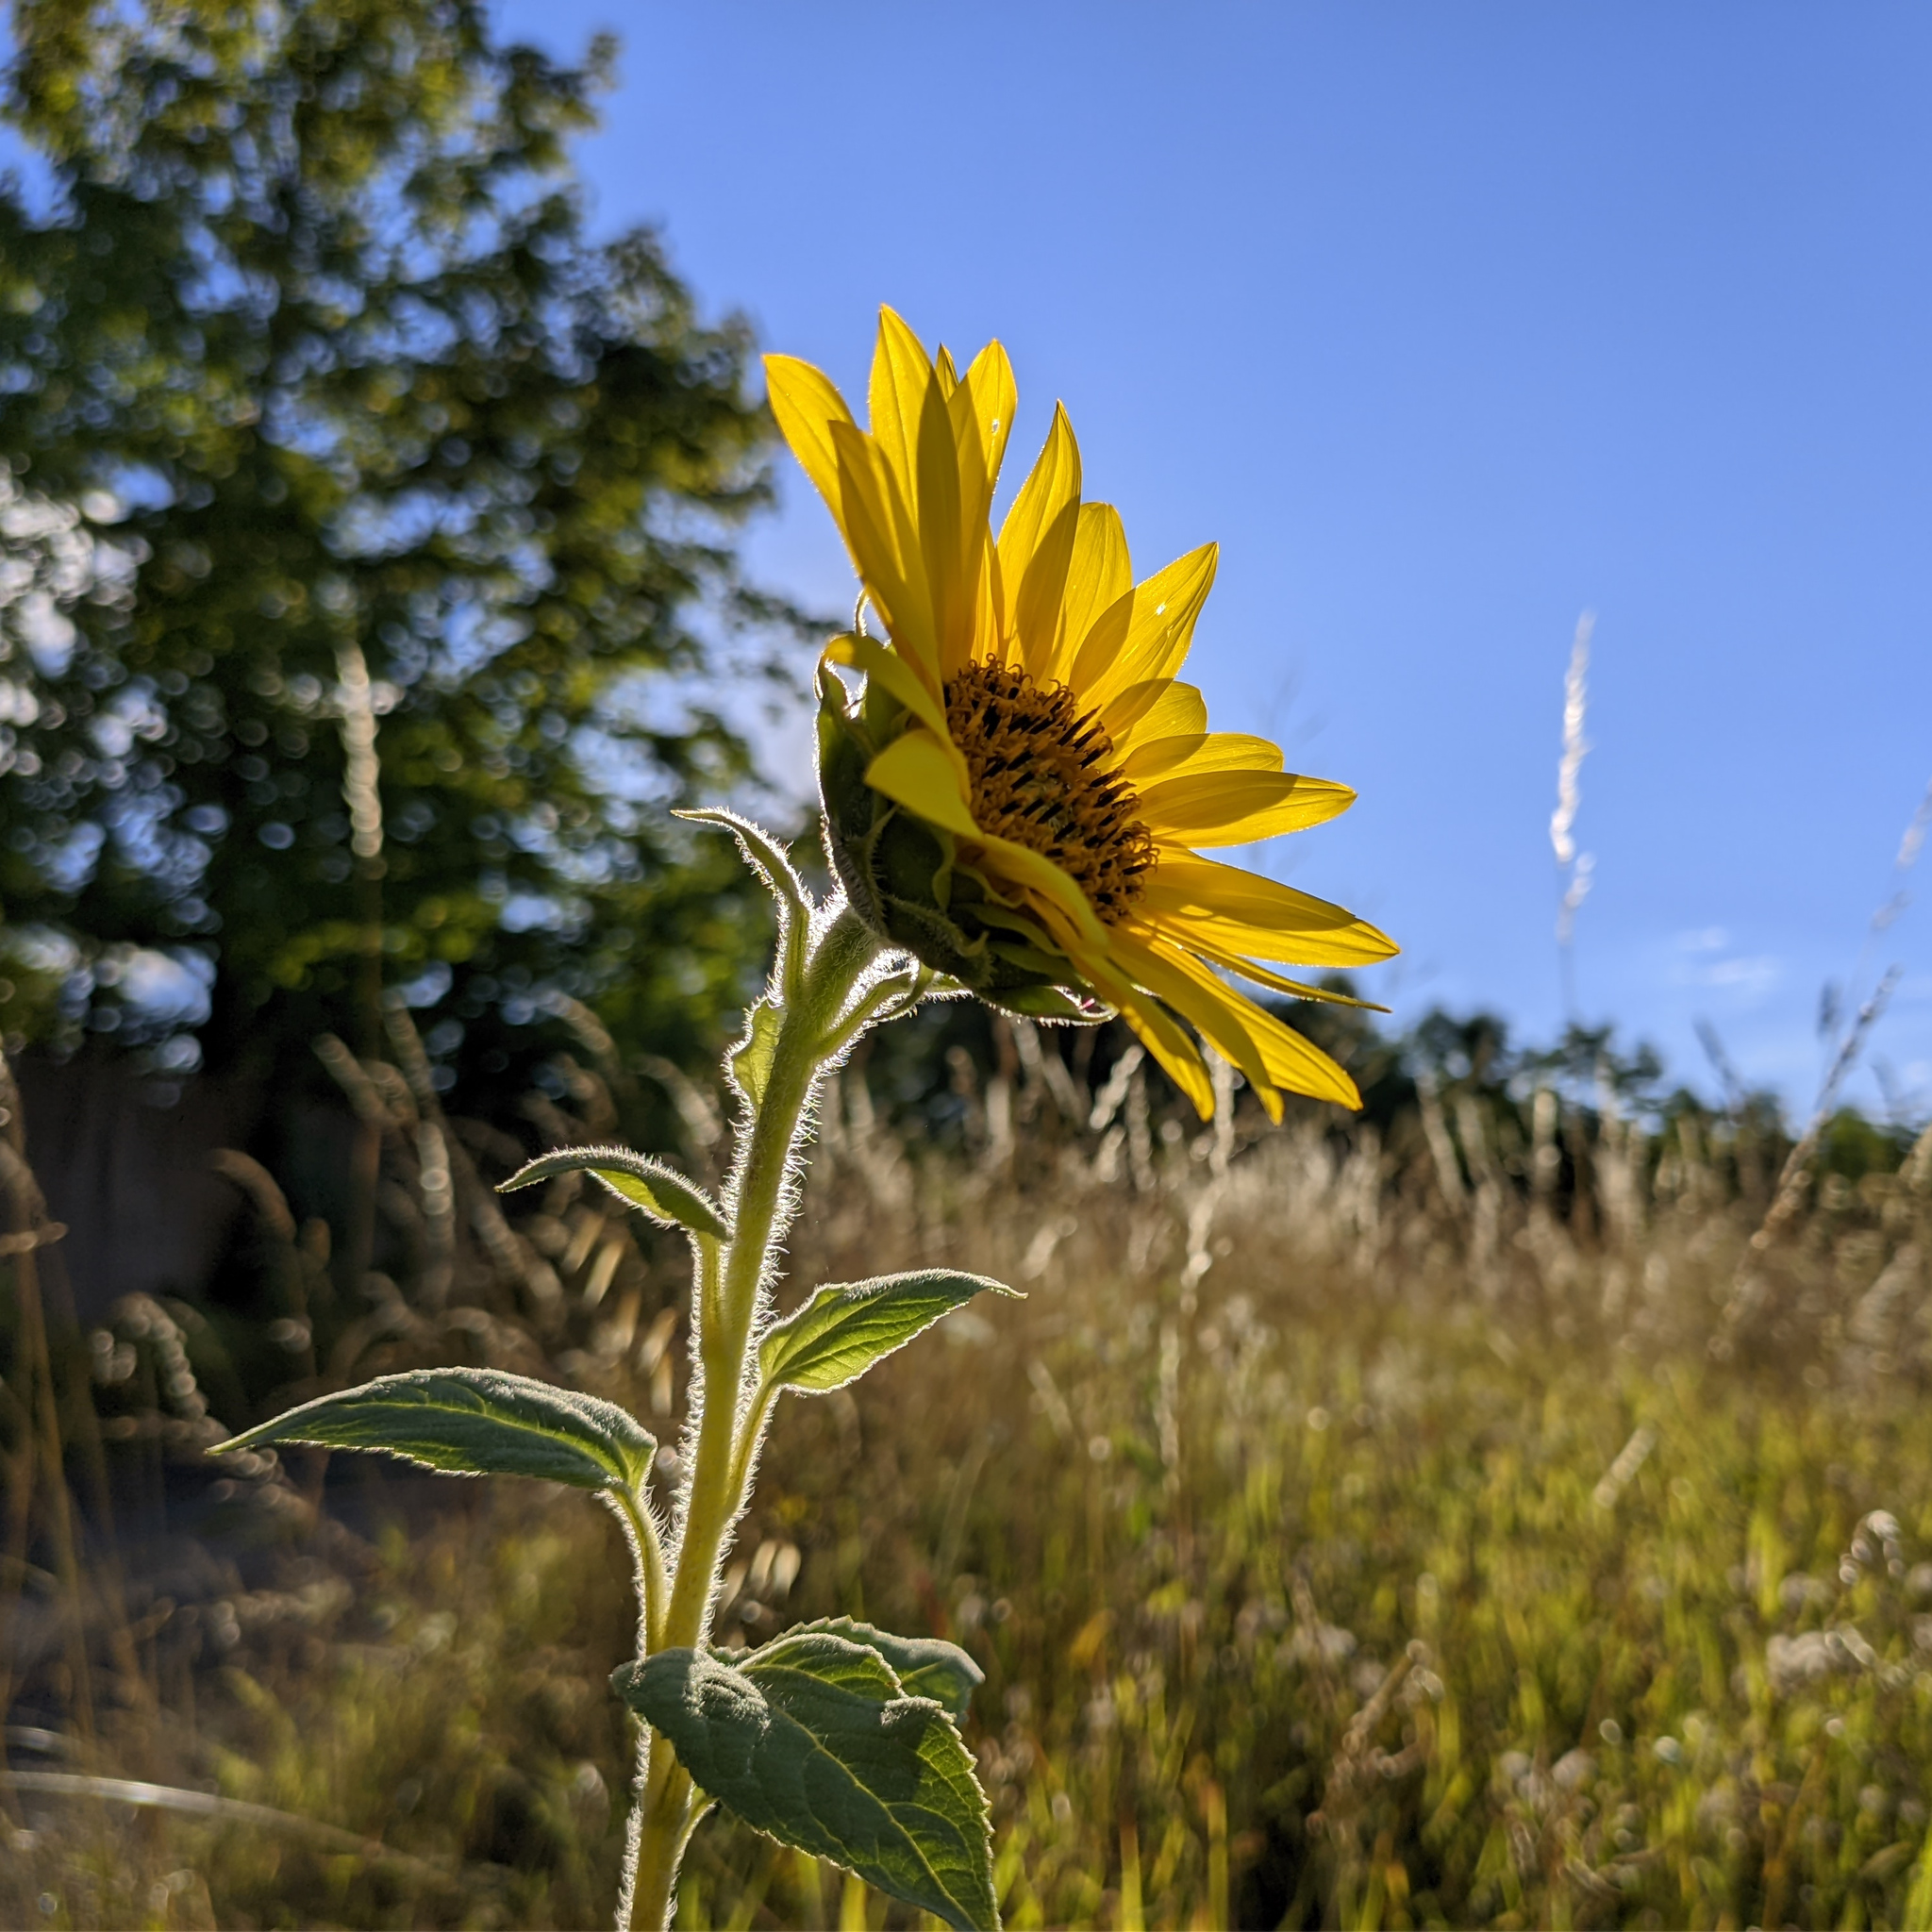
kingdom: Plantae
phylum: Tracheophyta
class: Magnoliopsida
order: Asterales
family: Asteraceae
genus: Helianthus
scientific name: Helianthus annuus
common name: Sunflower
